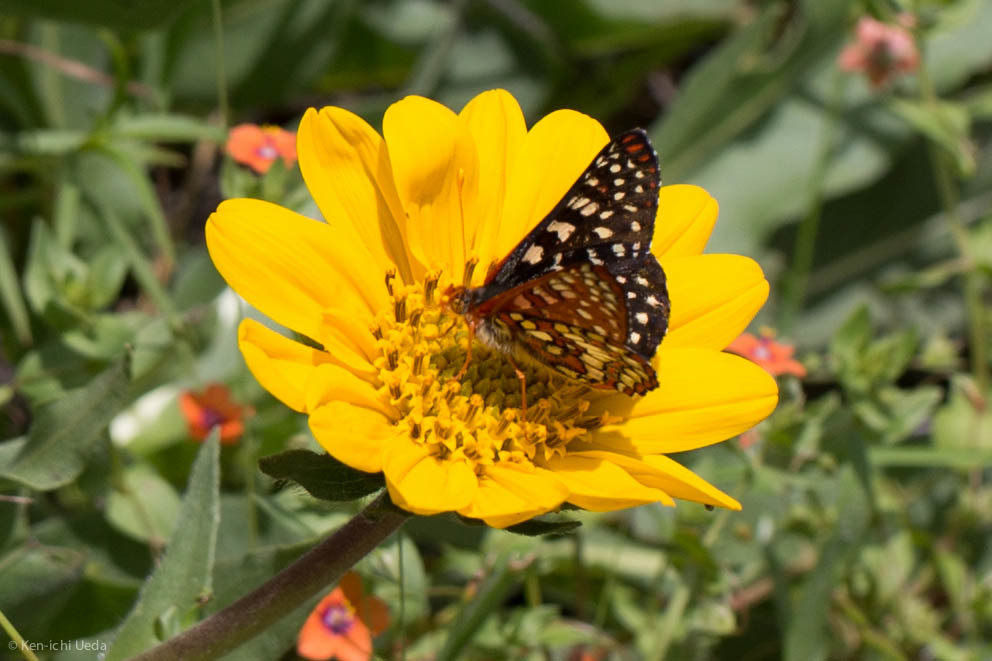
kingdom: Animalia
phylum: Arthropoda
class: Insecta
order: Lepidoptera
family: Nymphalidae
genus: Occidryas
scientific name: Occidryas chalcedona
